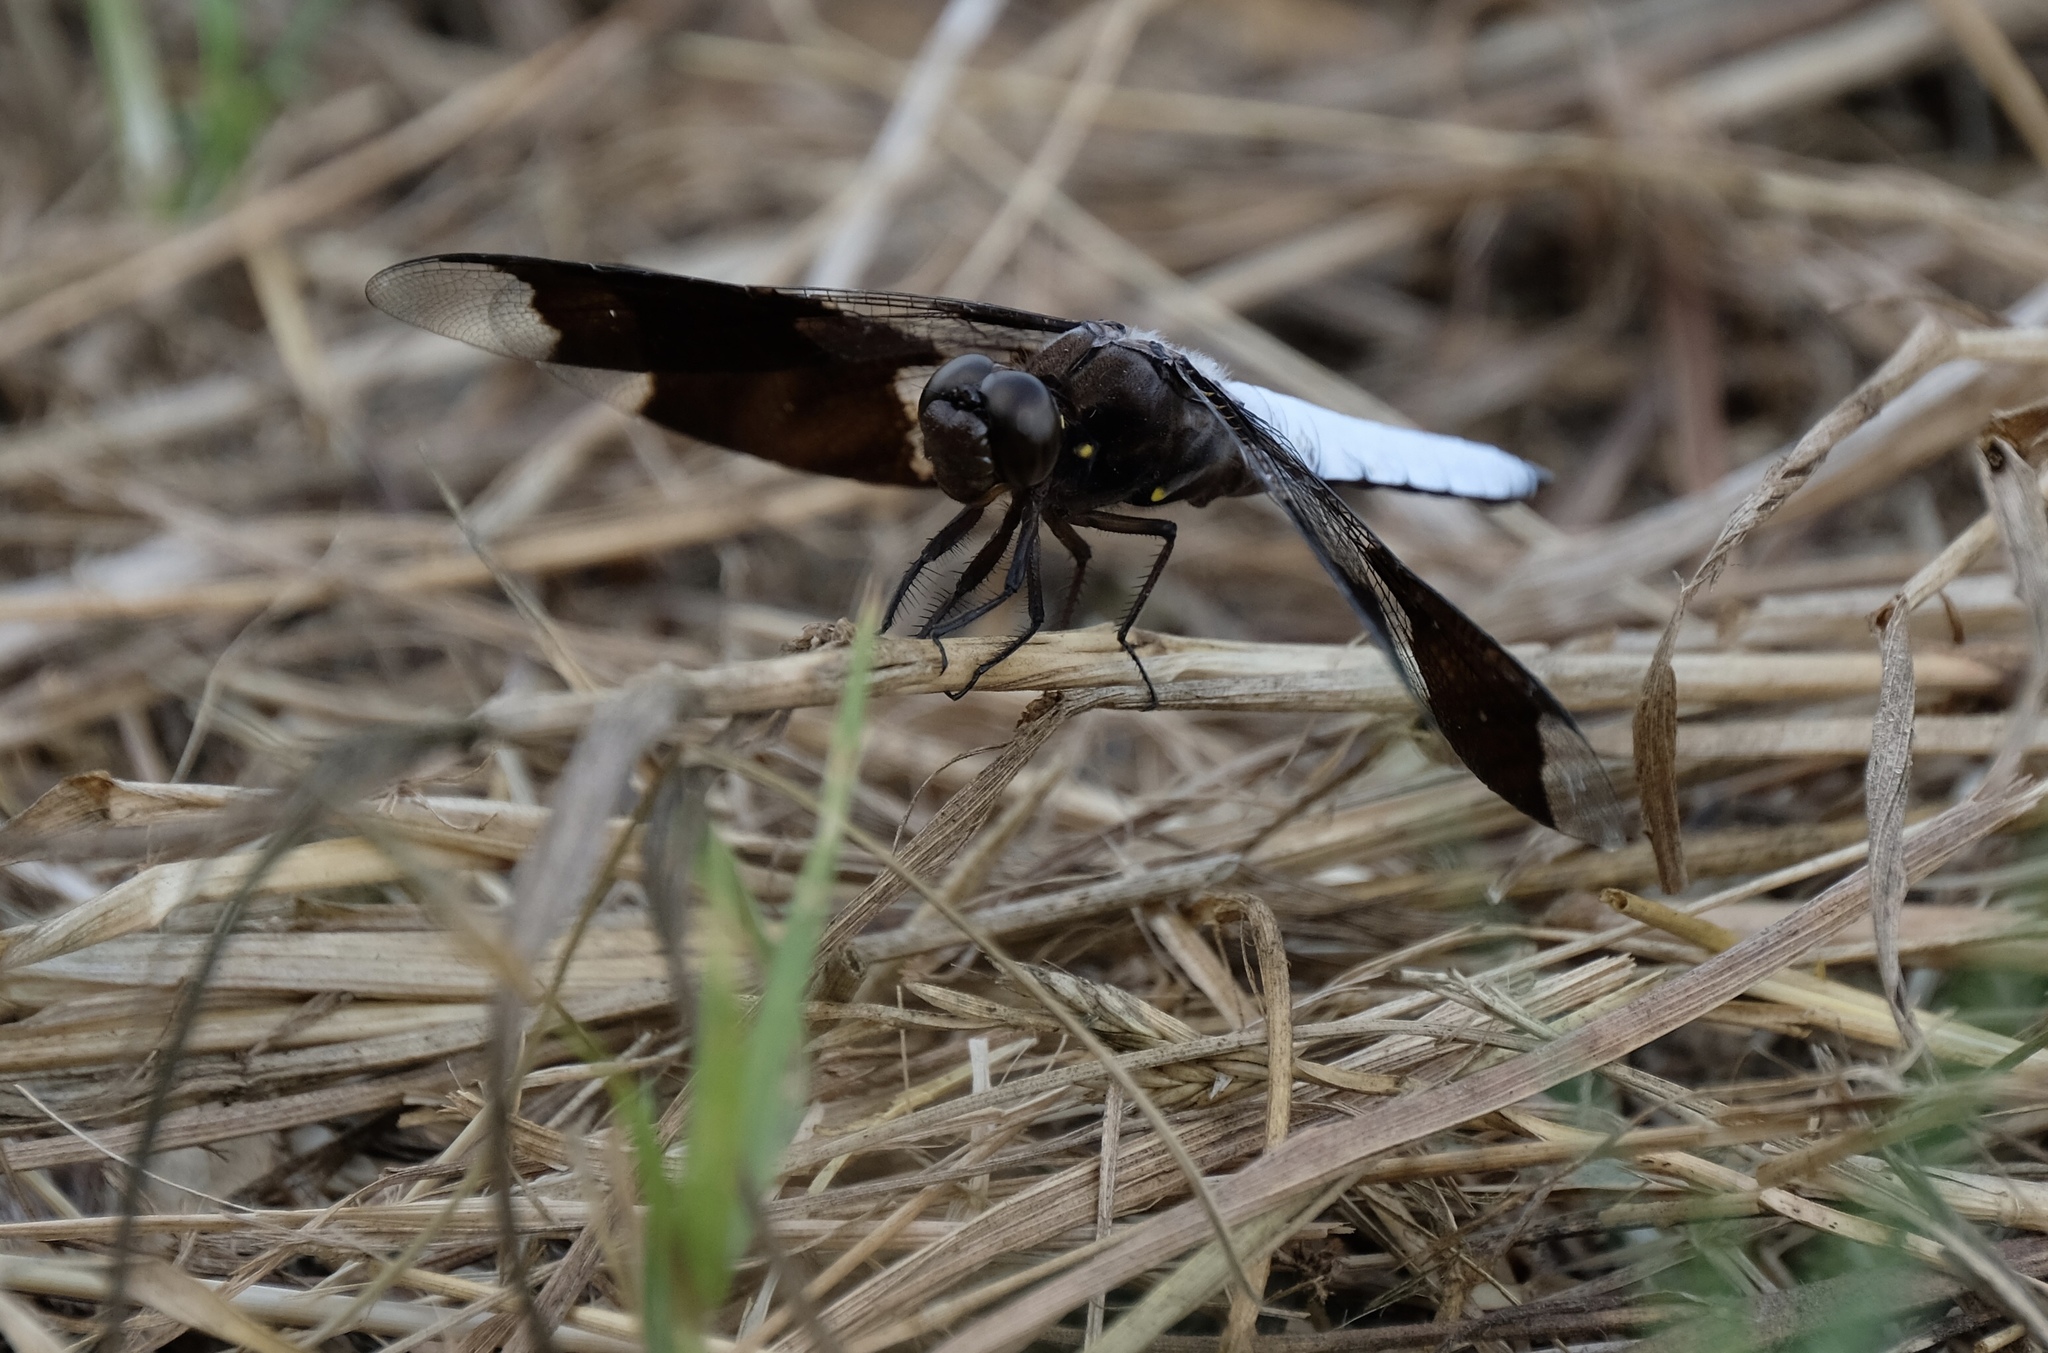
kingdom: Animalia
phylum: Arthropoda
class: Insecta
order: Odonata
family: Libellulidae
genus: Plathemis
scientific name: Plathemis lydia
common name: Common whitetail
